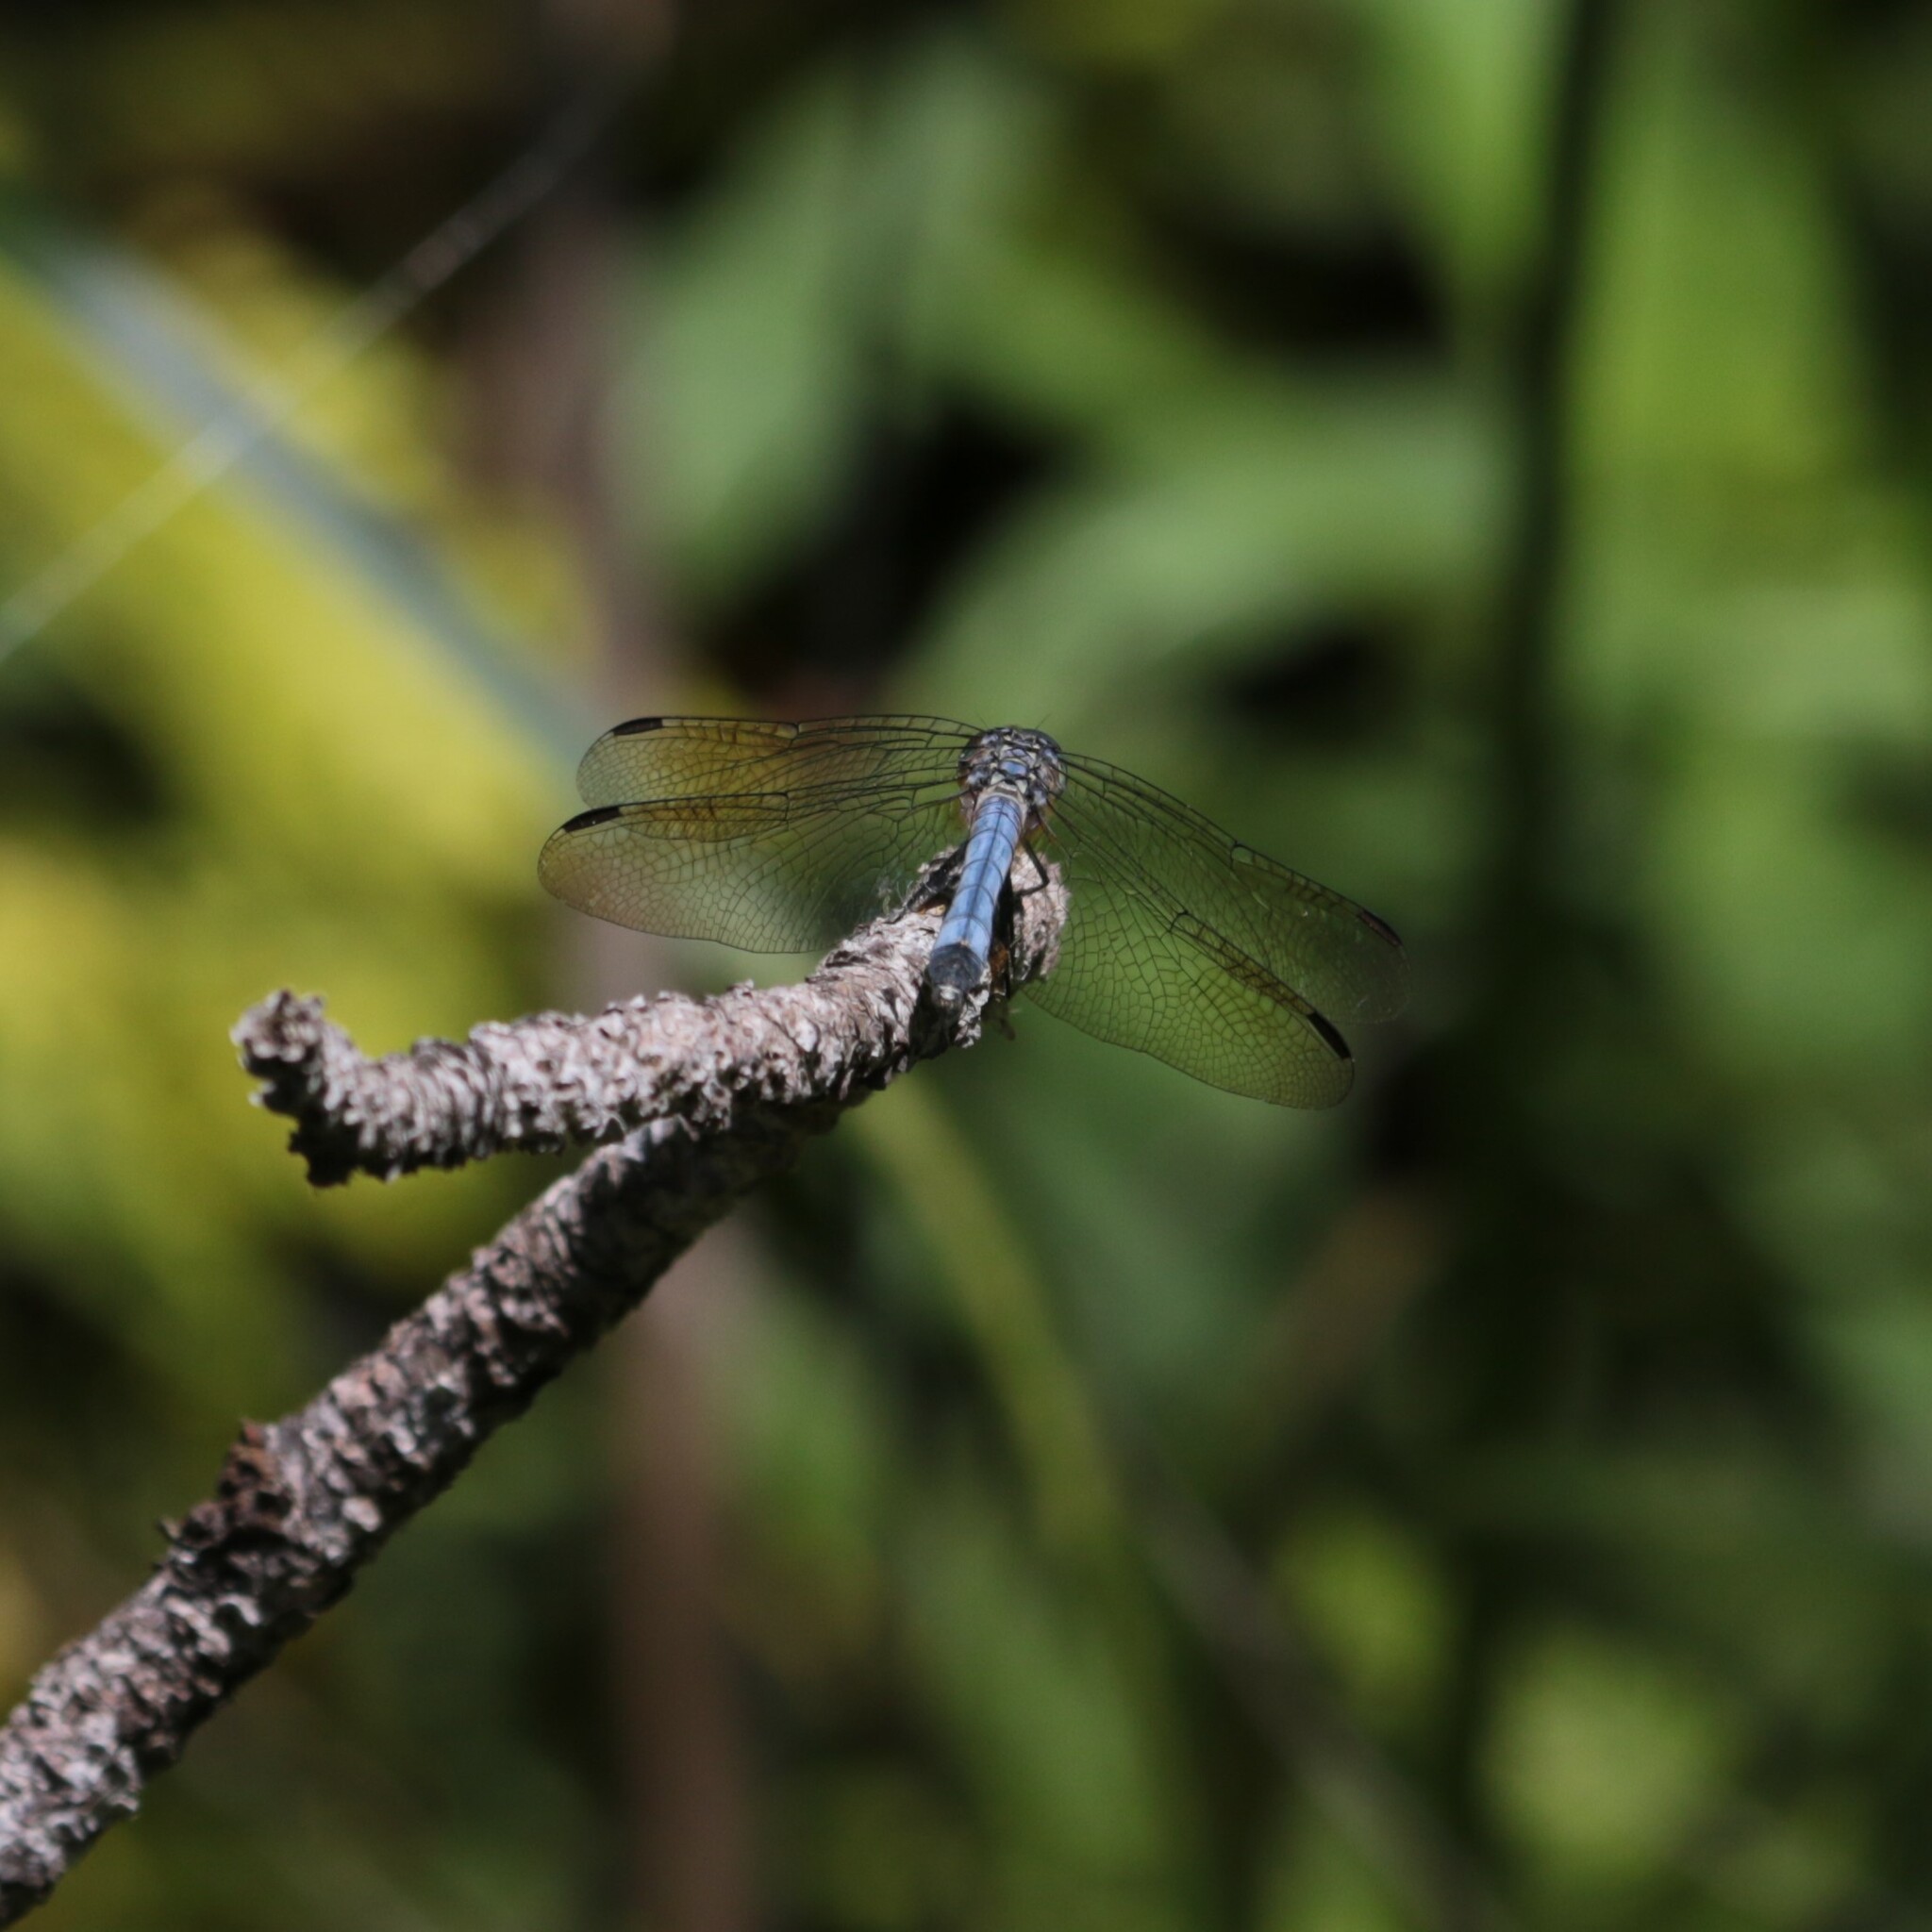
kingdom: Animalia
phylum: Arthropoda
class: Insecta
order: Odonata
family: Libellulidae
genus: Pachydiplax
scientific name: Pachydiplax longipennis
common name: Blue dasher
